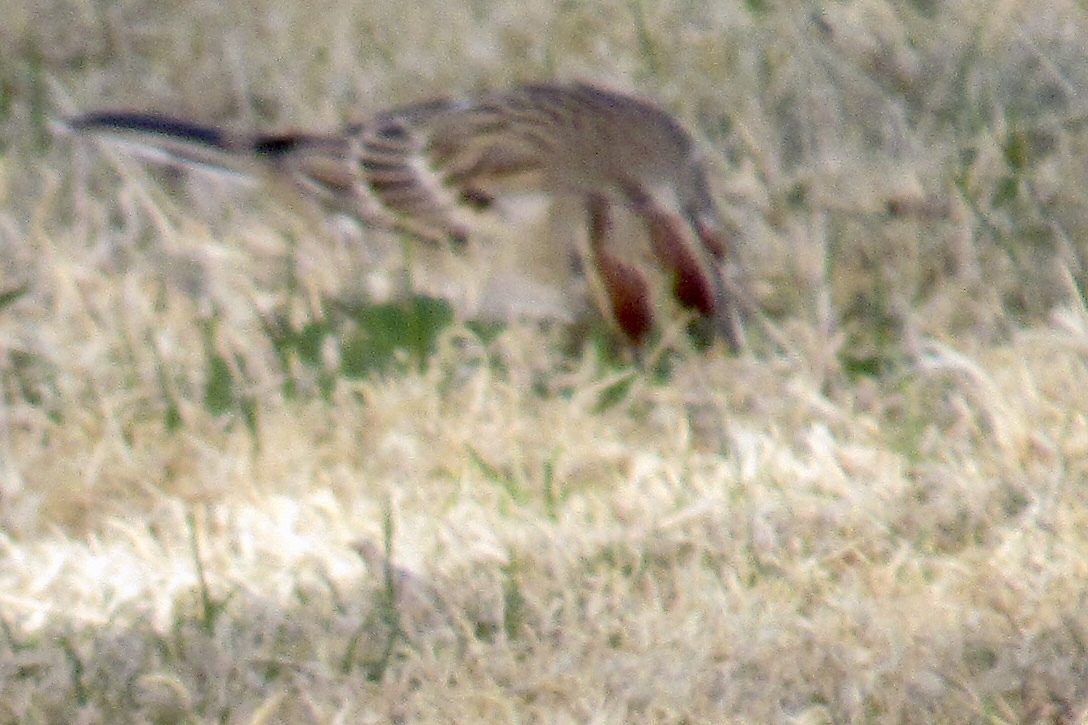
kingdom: Animalia
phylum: Chordata
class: Aves
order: Passeriformes
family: Passerellidae
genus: Chondestes
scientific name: Chondestes grammacus
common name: Lark sparrow
